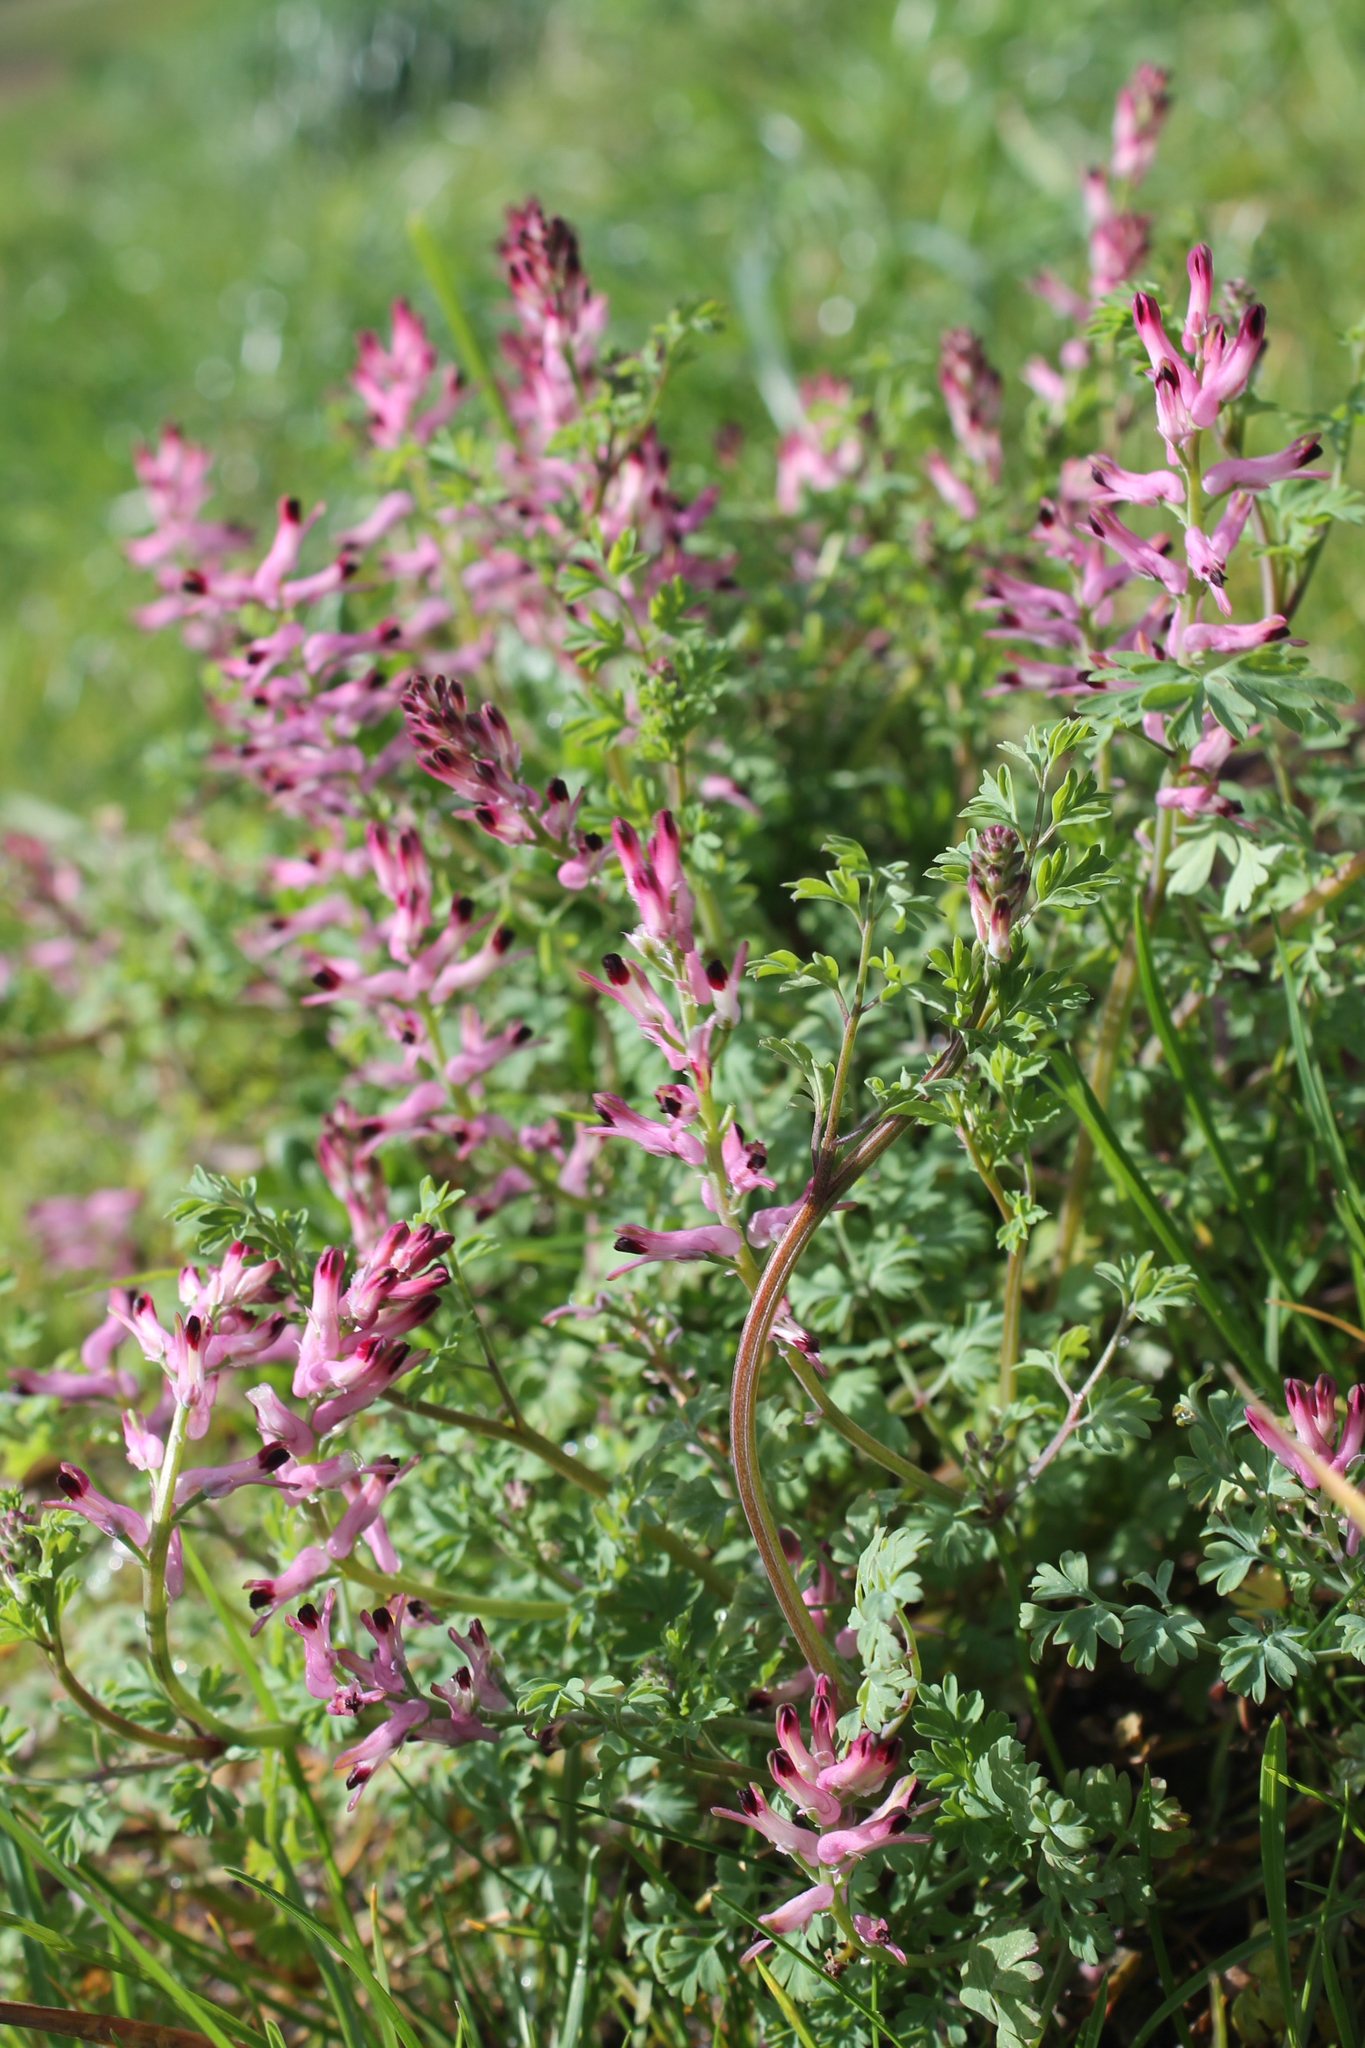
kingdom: Plantae
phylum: Tracheophyta
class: Magnoliopsida
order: Ranunculales
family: Papaveraceae
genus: Fumaria
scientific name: Fumaria bastardii
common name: Tall ramping-fumitory
